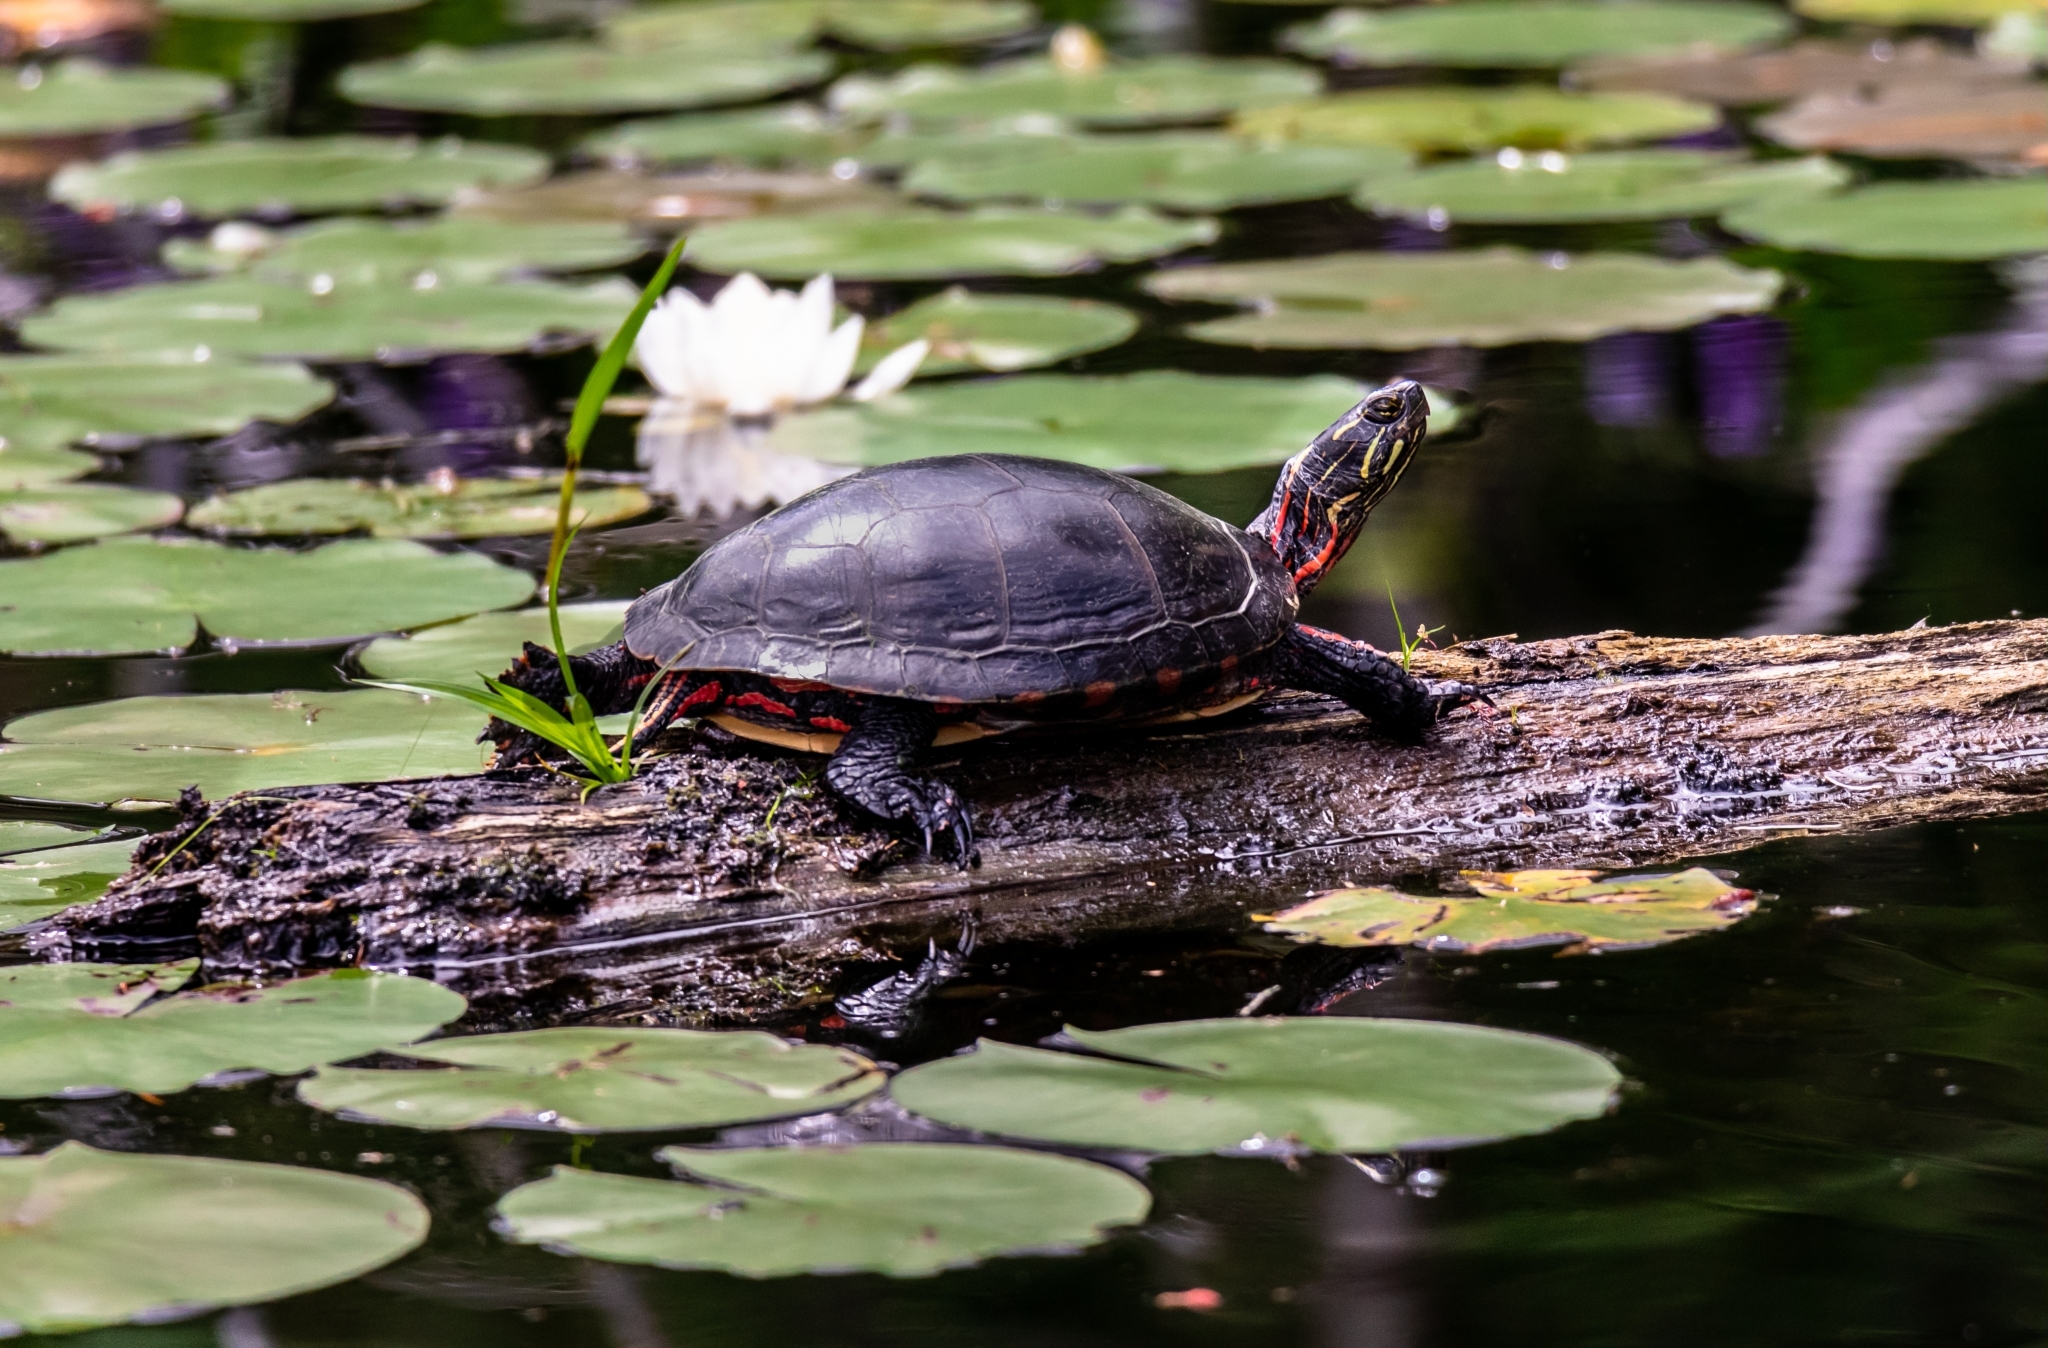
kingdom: Animalia
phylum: Chordata
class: Testudines
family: Emydidae
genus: Chrysemys
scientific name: Chrysemys picta
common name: Painted turtle
